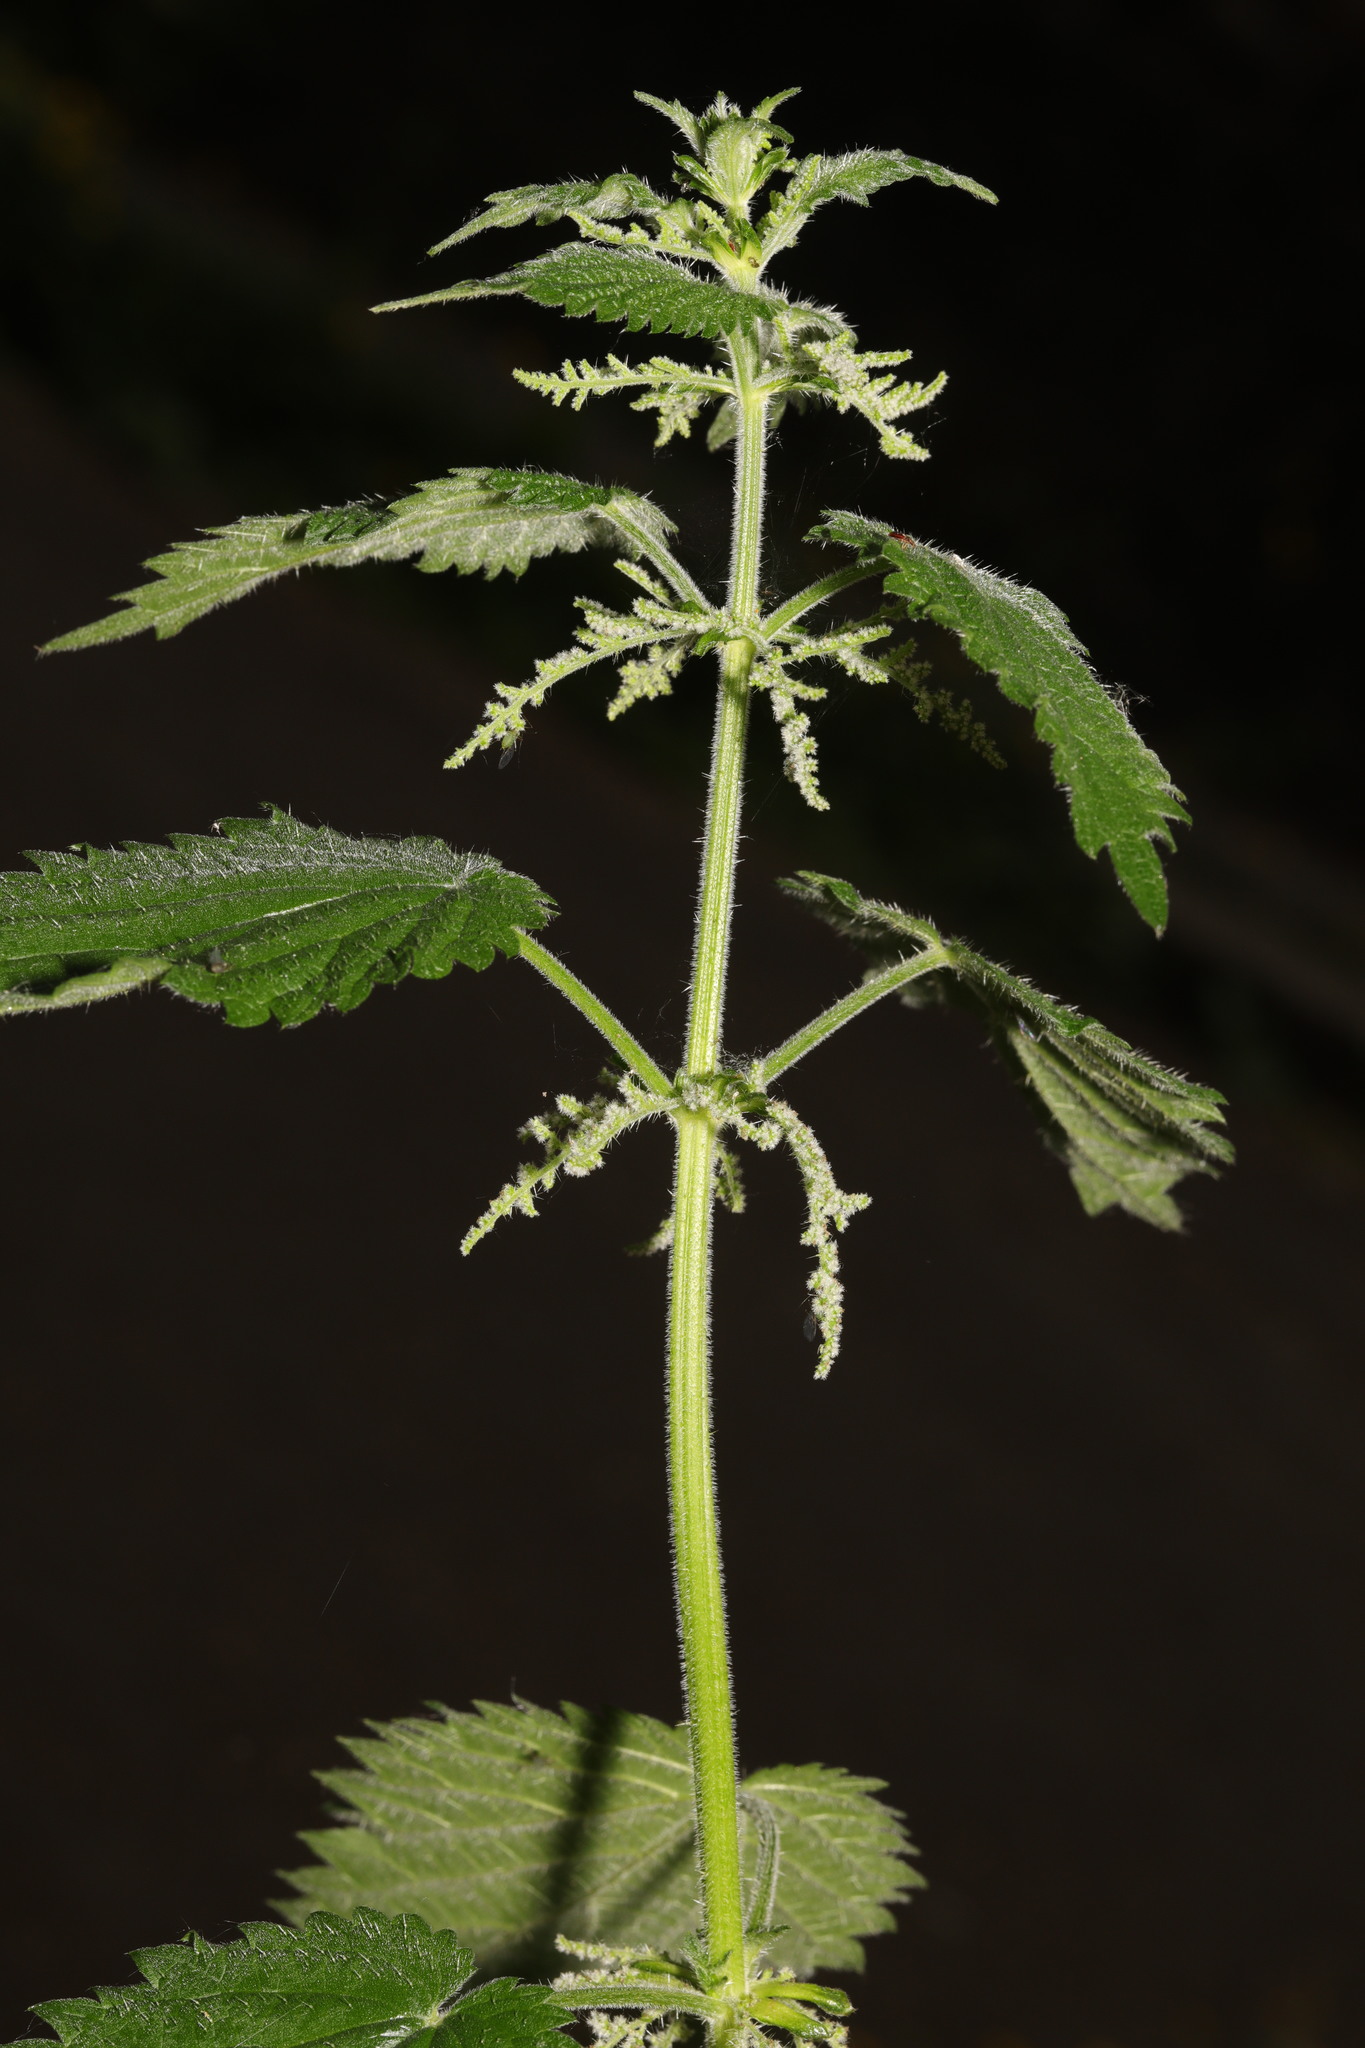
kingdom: Plantae
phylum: Tracheophyta
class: Magnoliopsida
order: Rosales
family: Urticaceae
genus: Urtica
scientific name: Urtica dioica
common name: Common nettle
